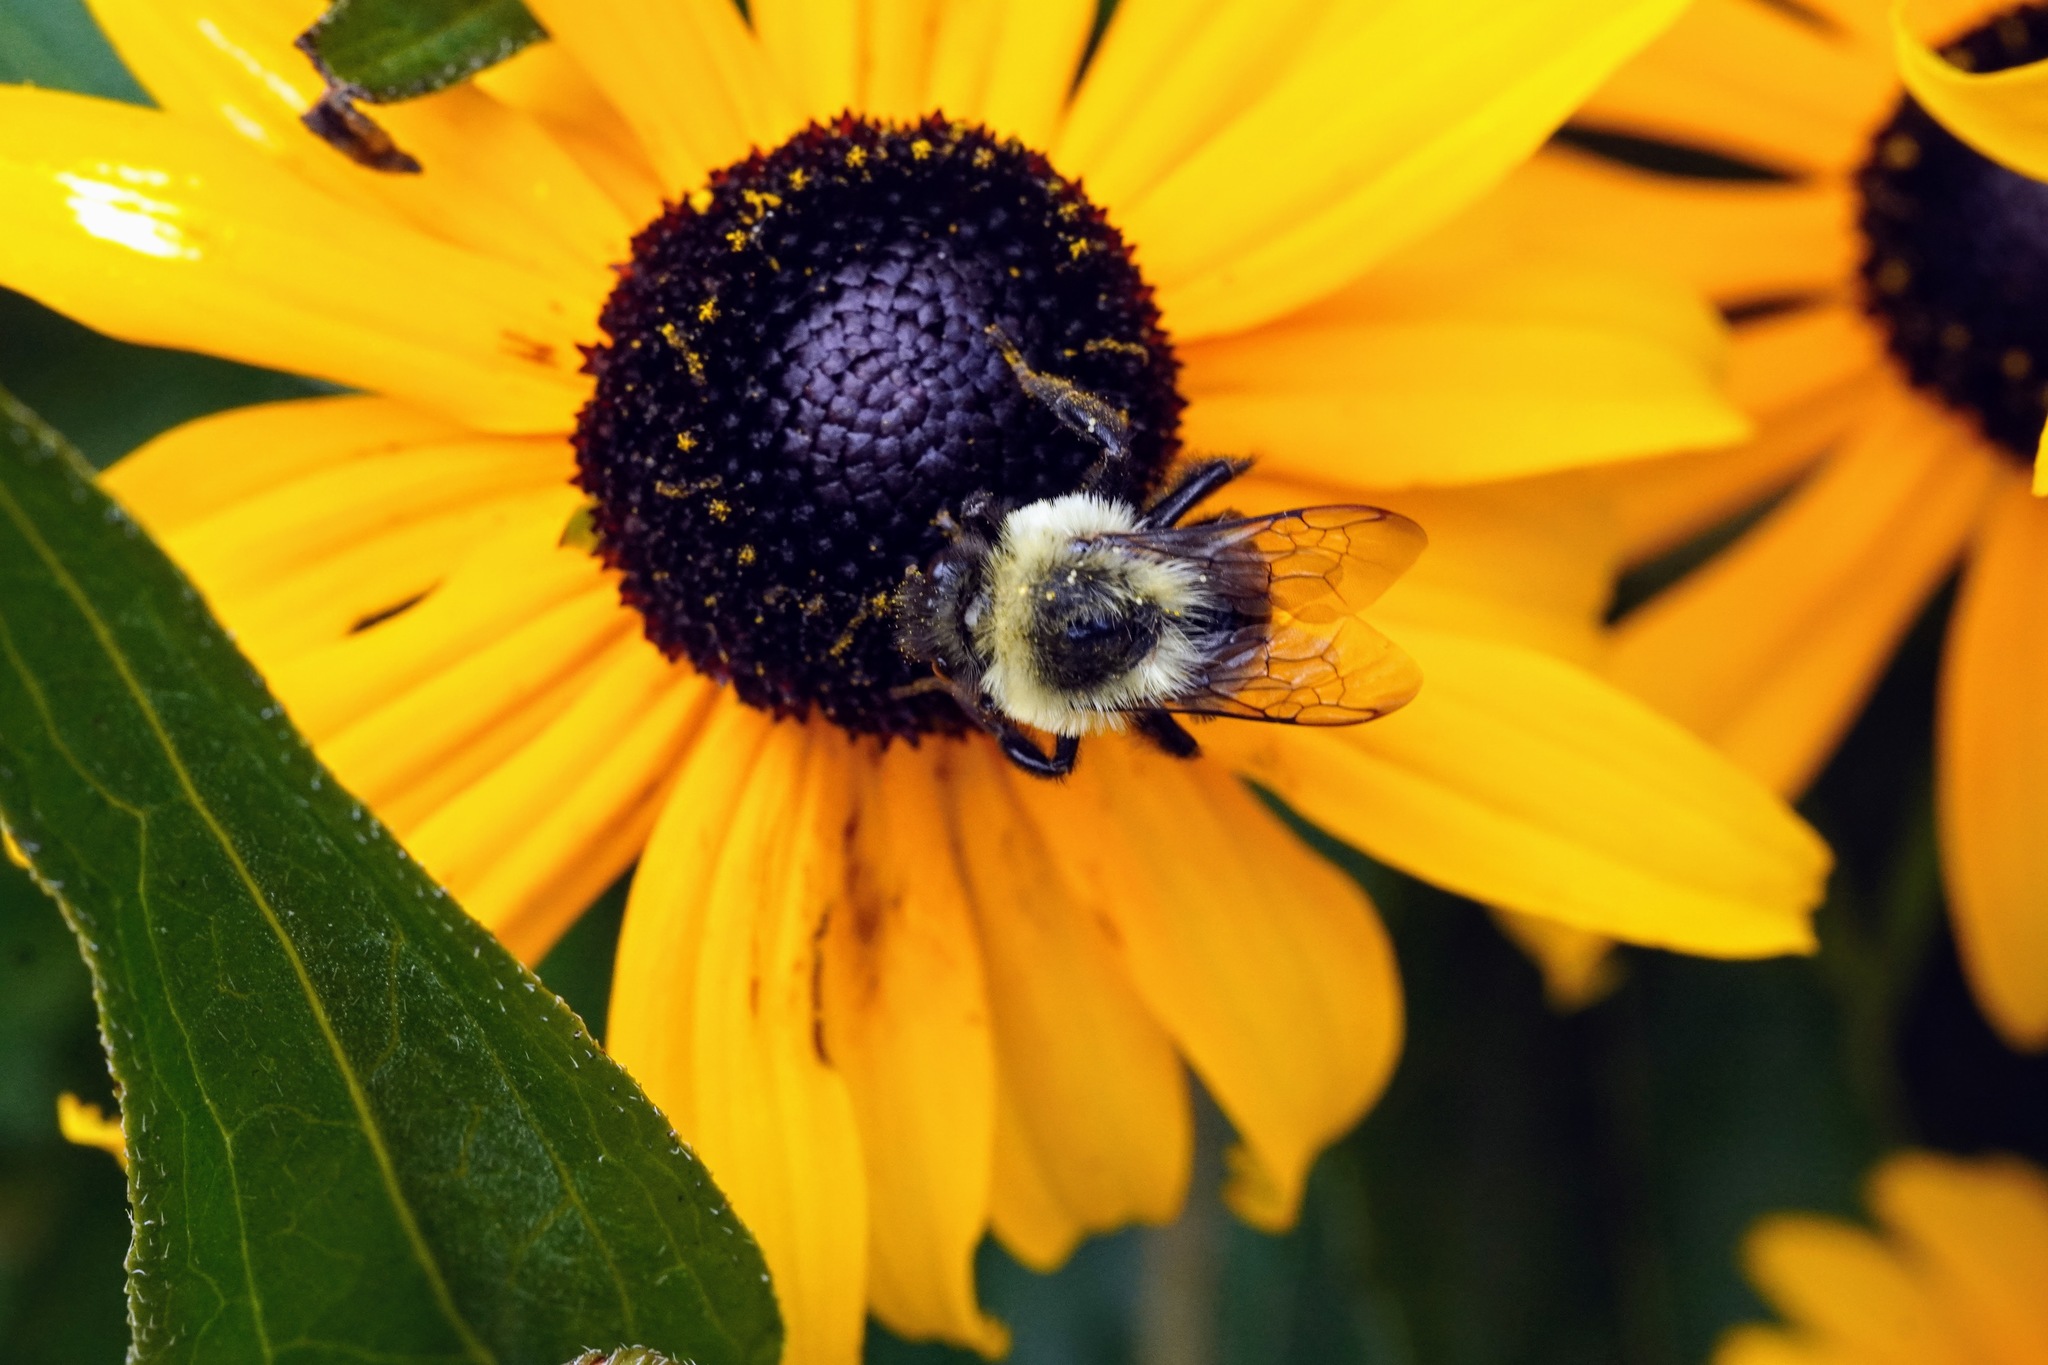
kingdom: Animalia
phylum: Arthropoda
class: Insecta
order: Hymenoptera
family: Apidae
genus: Bombus
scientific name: Bombus impatiens
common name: Common eastern bumble bee
